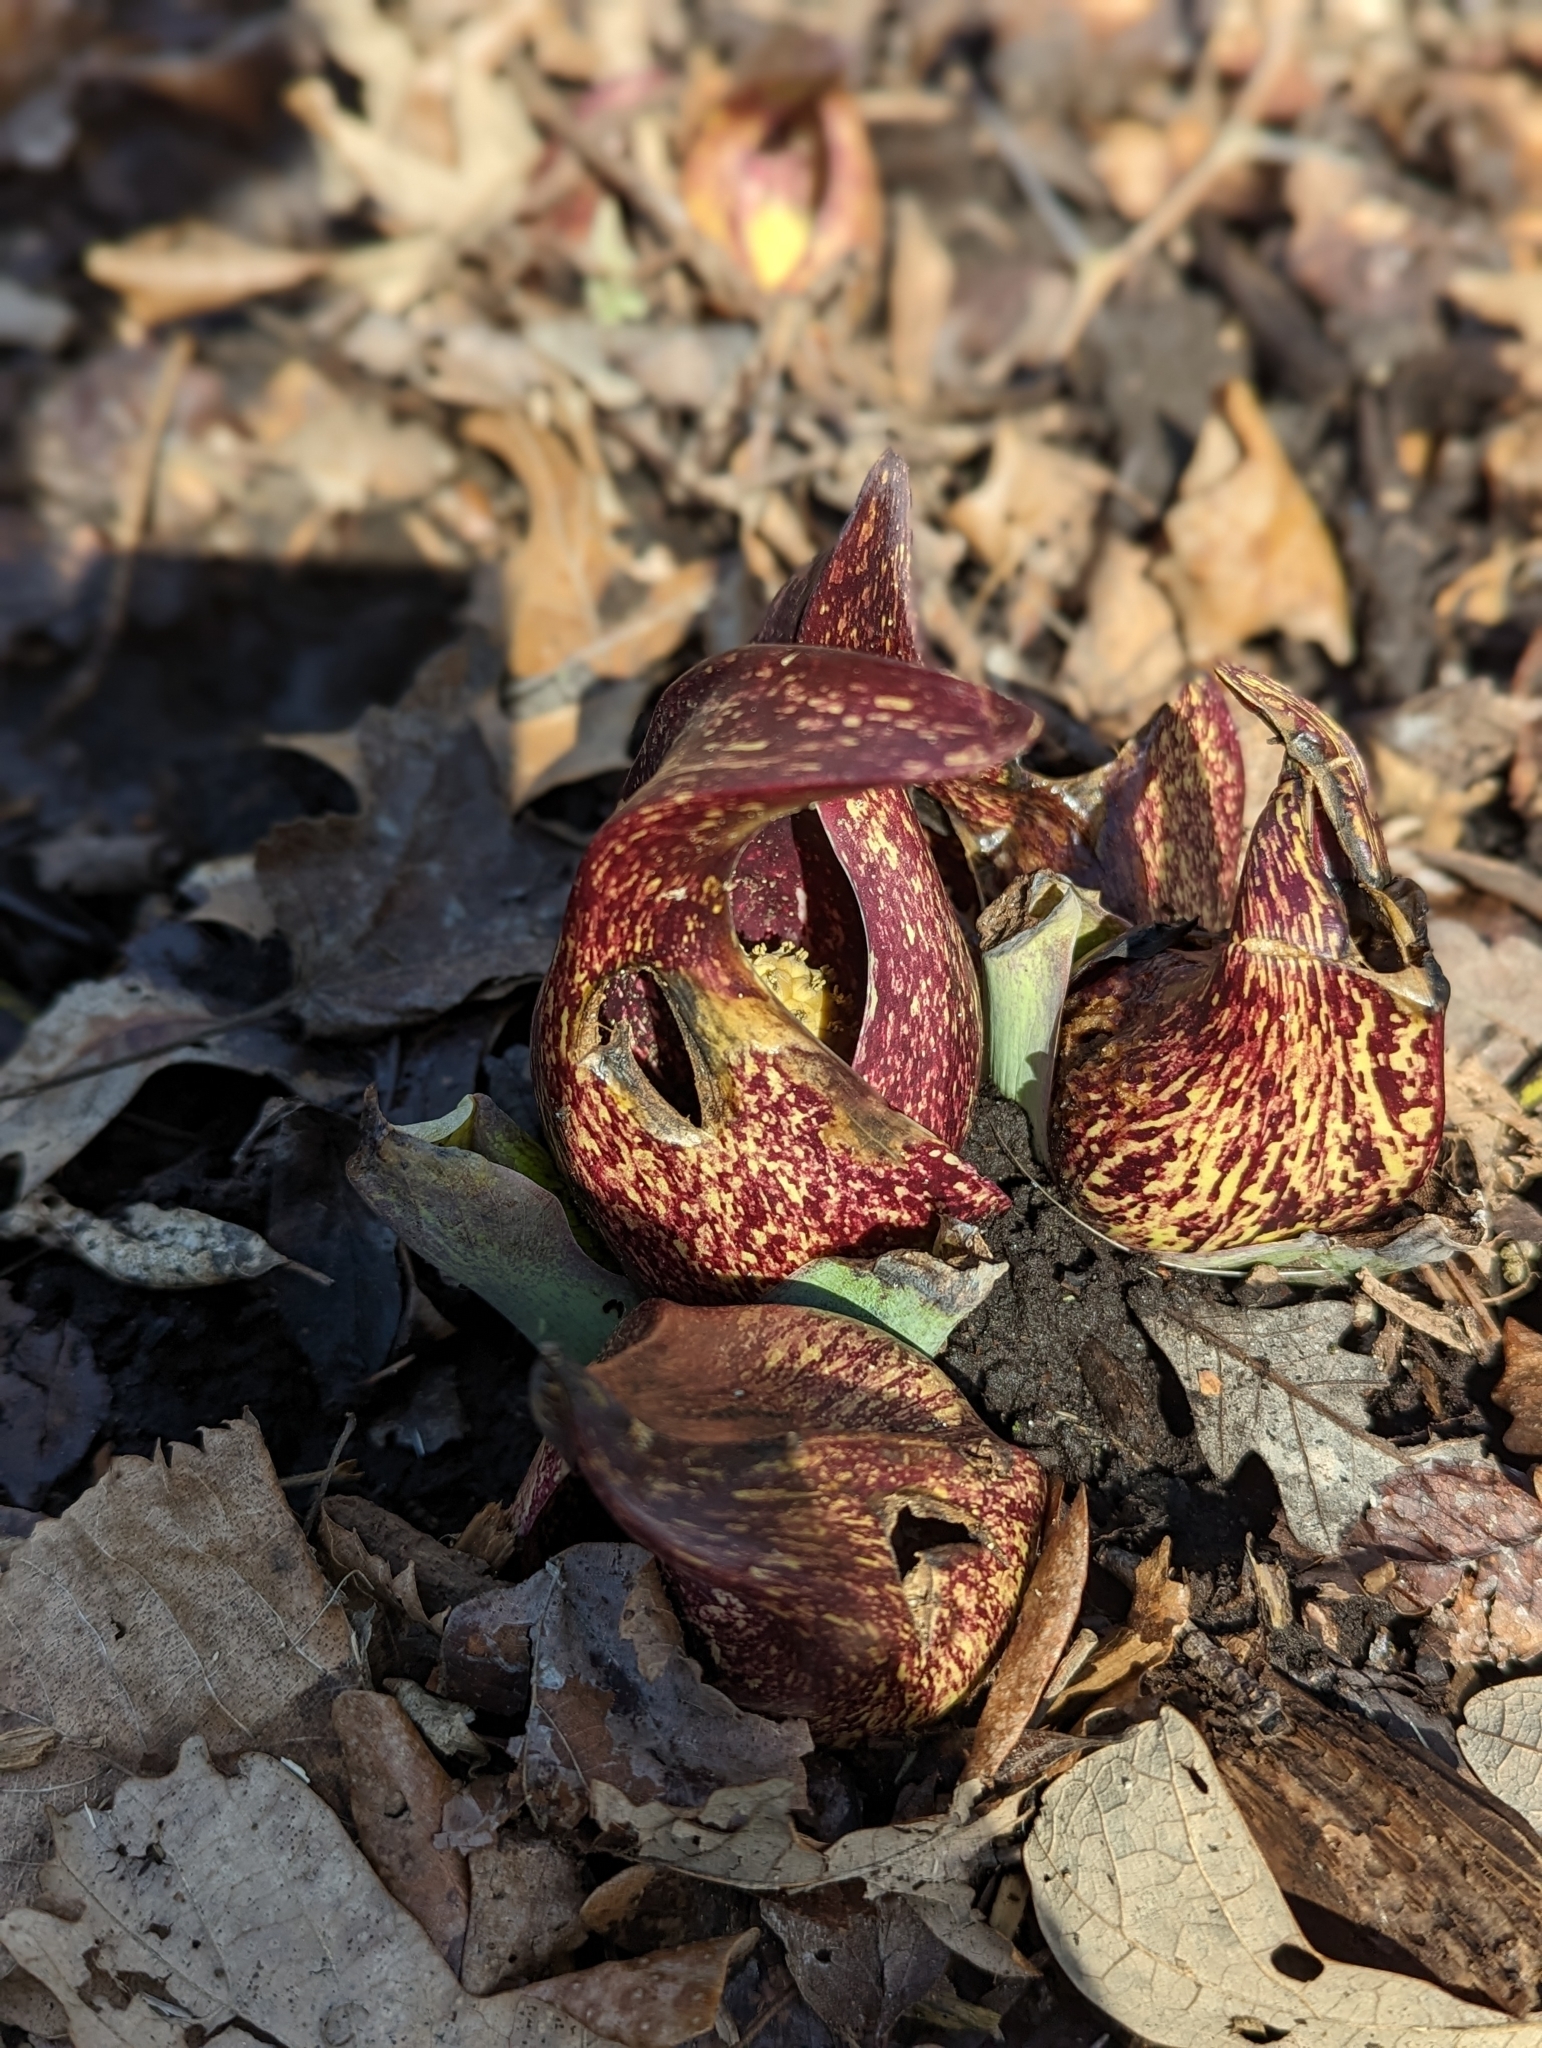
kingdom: Plantae
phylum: Tracheophyta
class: Liliopsida
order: Alismatales
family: Araceae
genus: Symplocarpus
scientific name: Symplocarpus foetidus
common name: Eastern skunk cabbage
